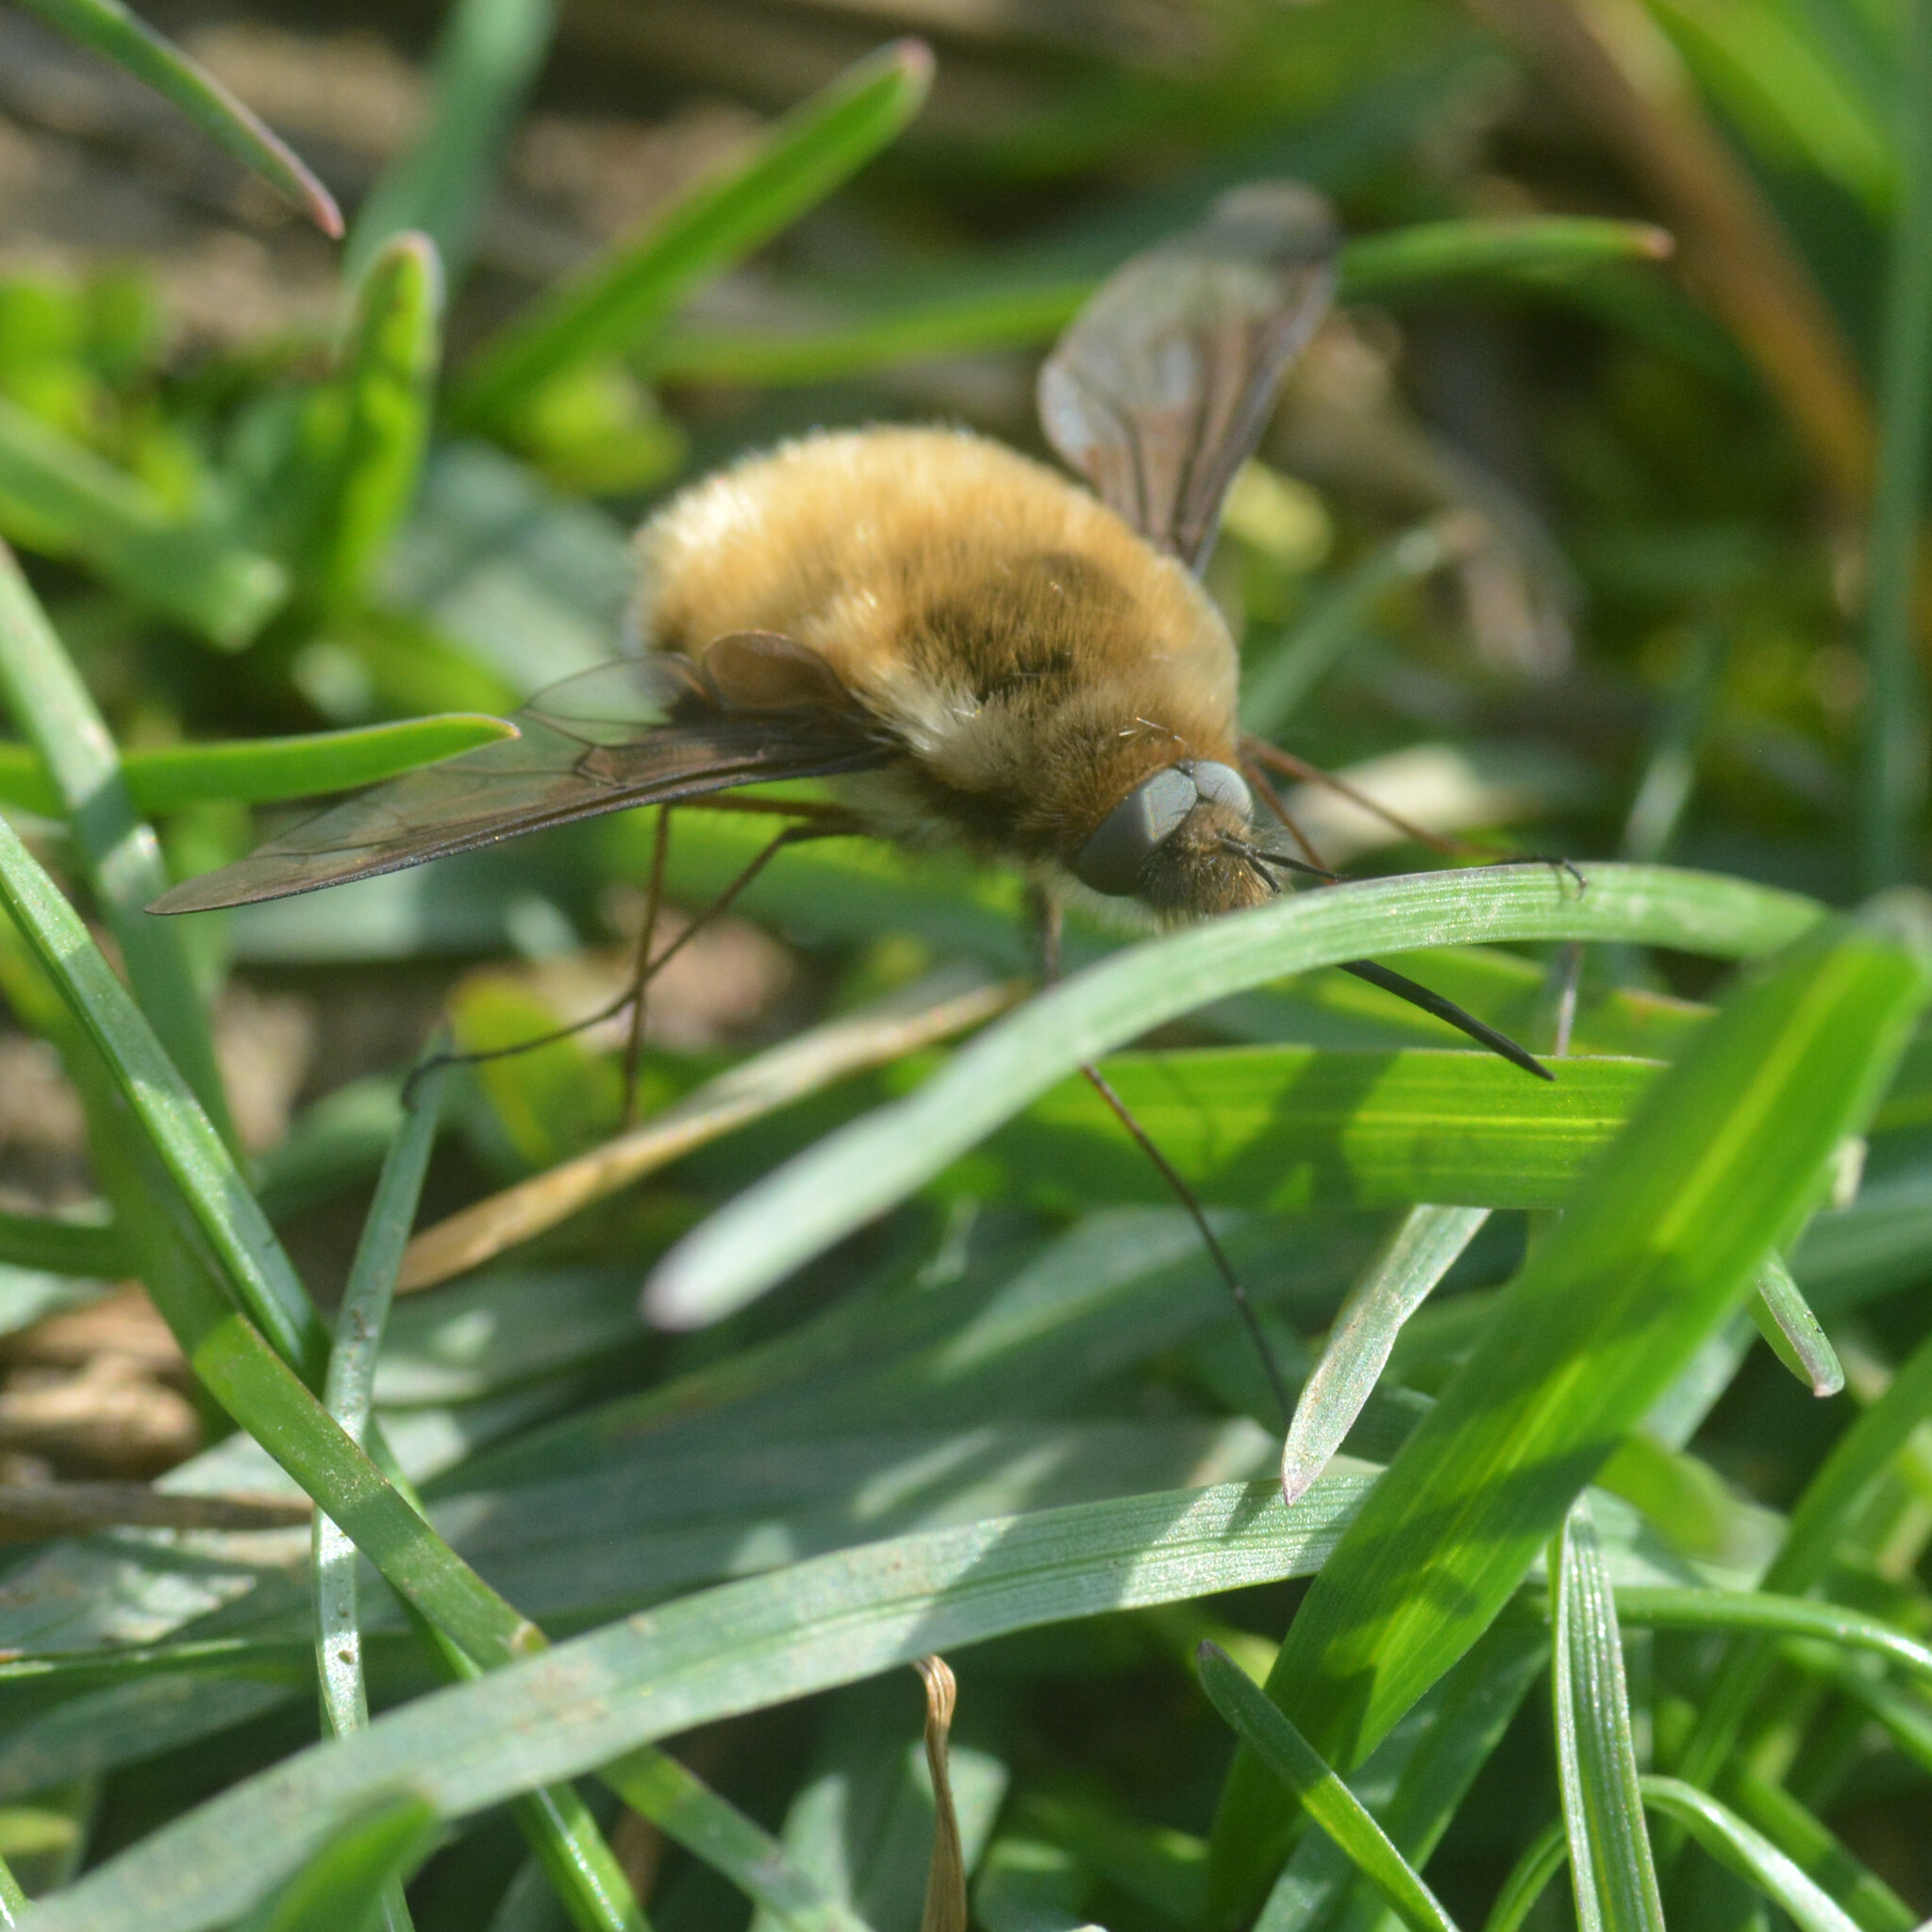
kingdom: Animalia
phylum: Arthropoda
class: Insecta
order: Diptera
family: Bombyliidae
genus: Bombylius
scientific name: Bombylius major
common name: Bee fly
